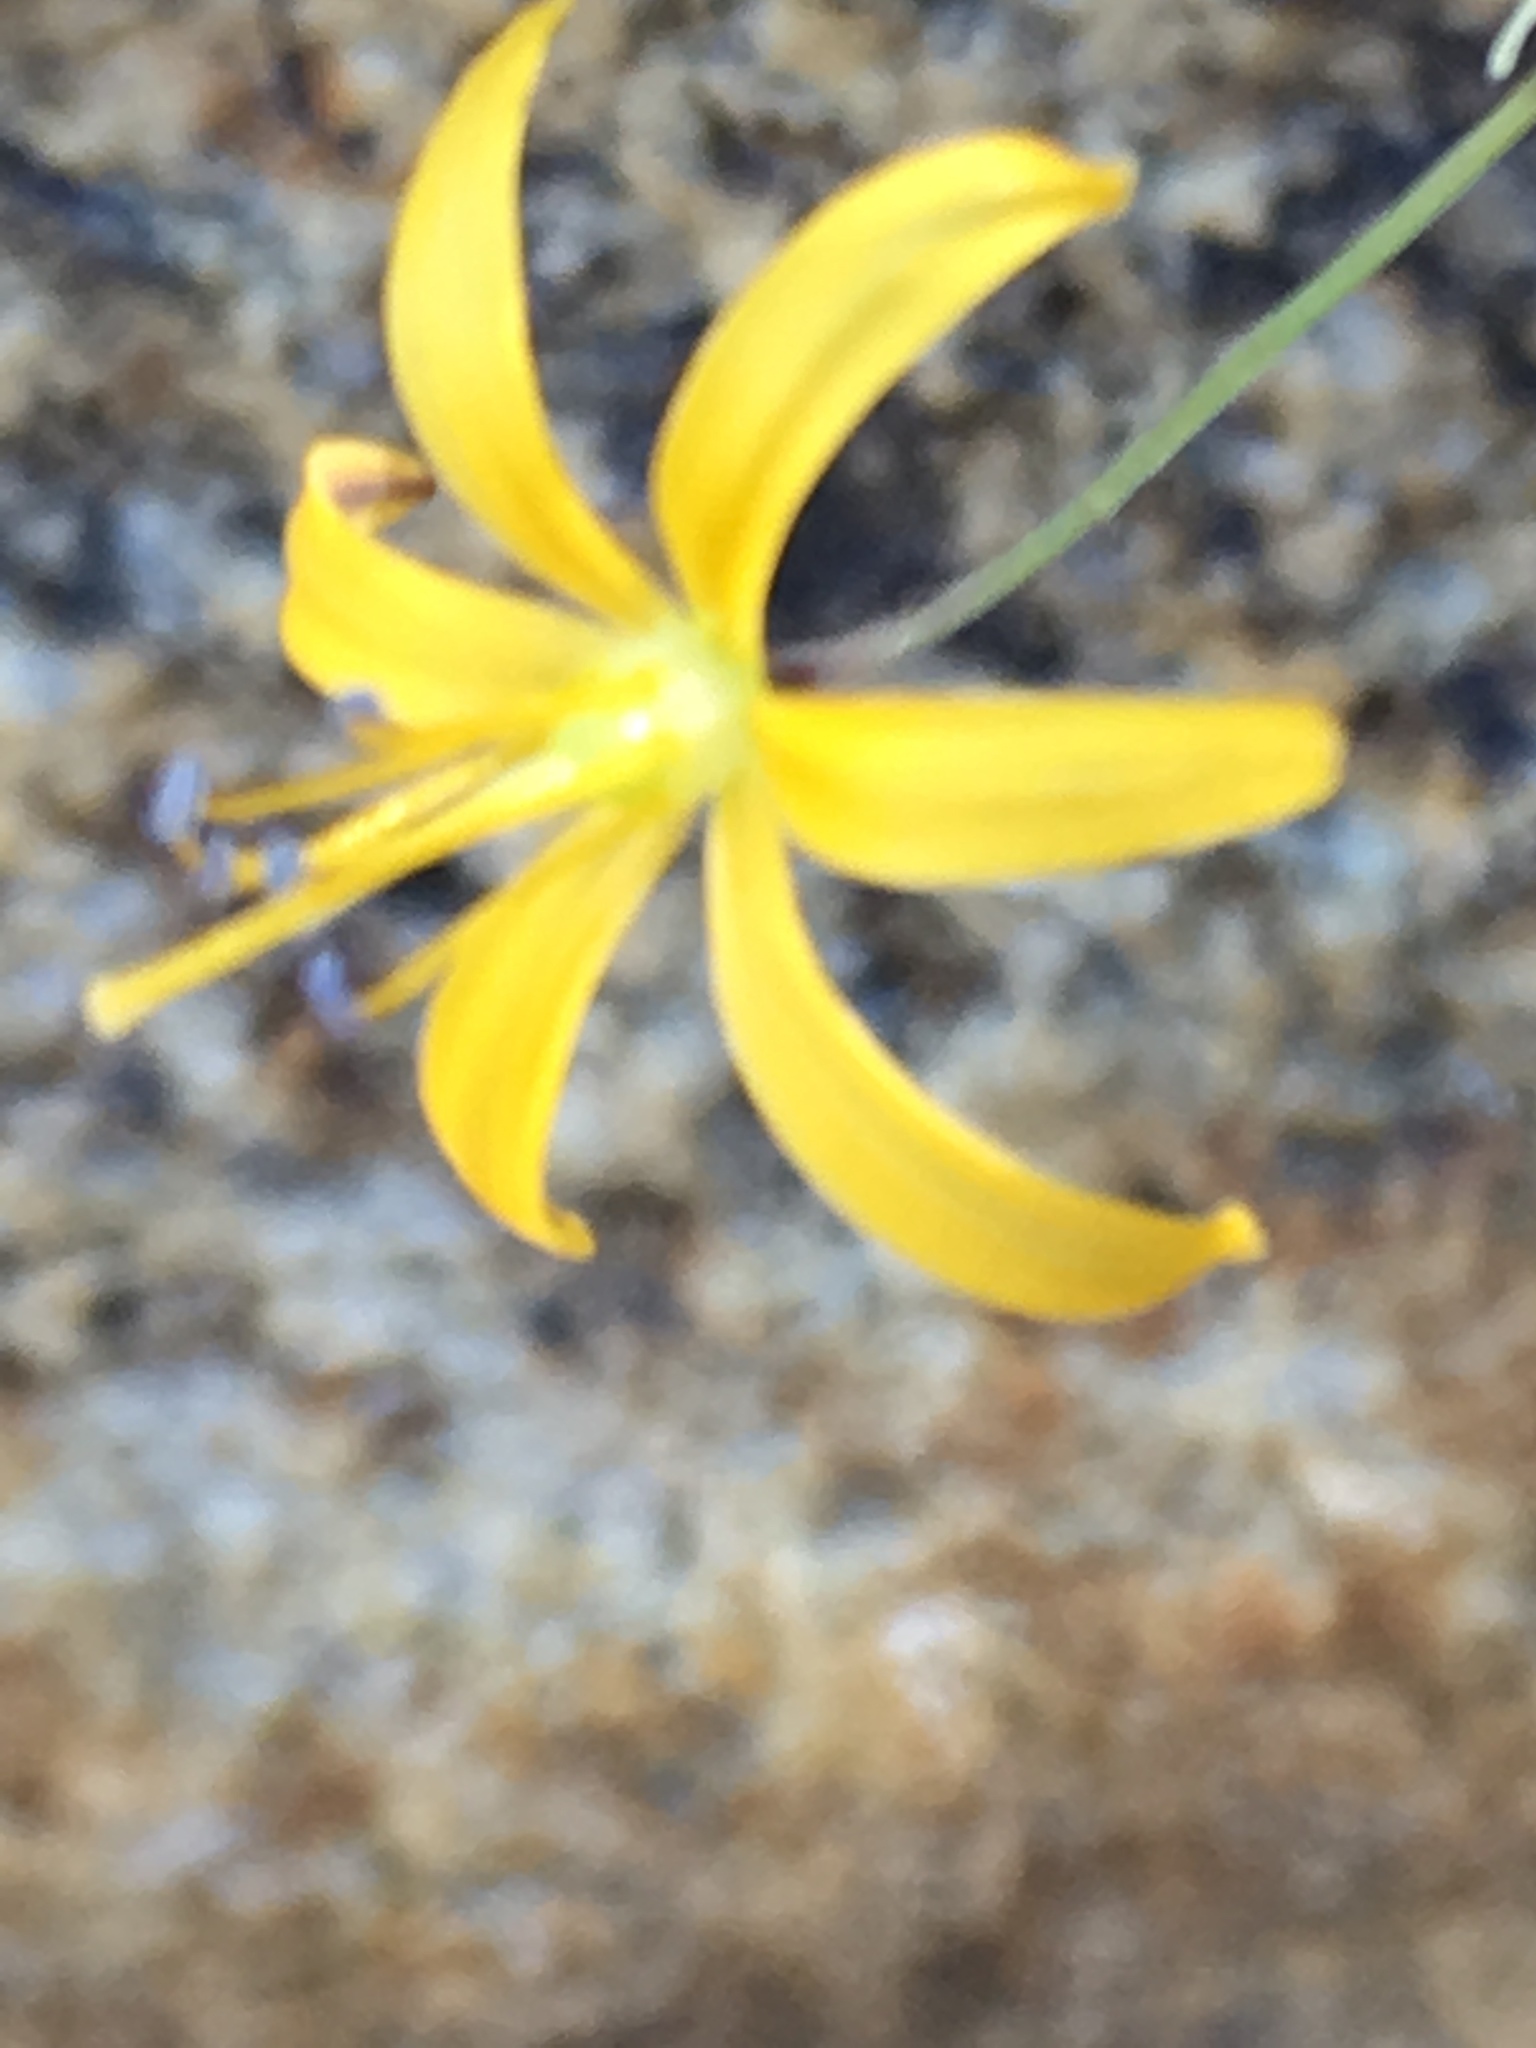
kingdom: Plantae
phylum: Tracheophyta
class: Liliopsida
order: Asparagales
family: Asparagaceae
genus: Bloomeria
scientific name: Bloomeria crocea
